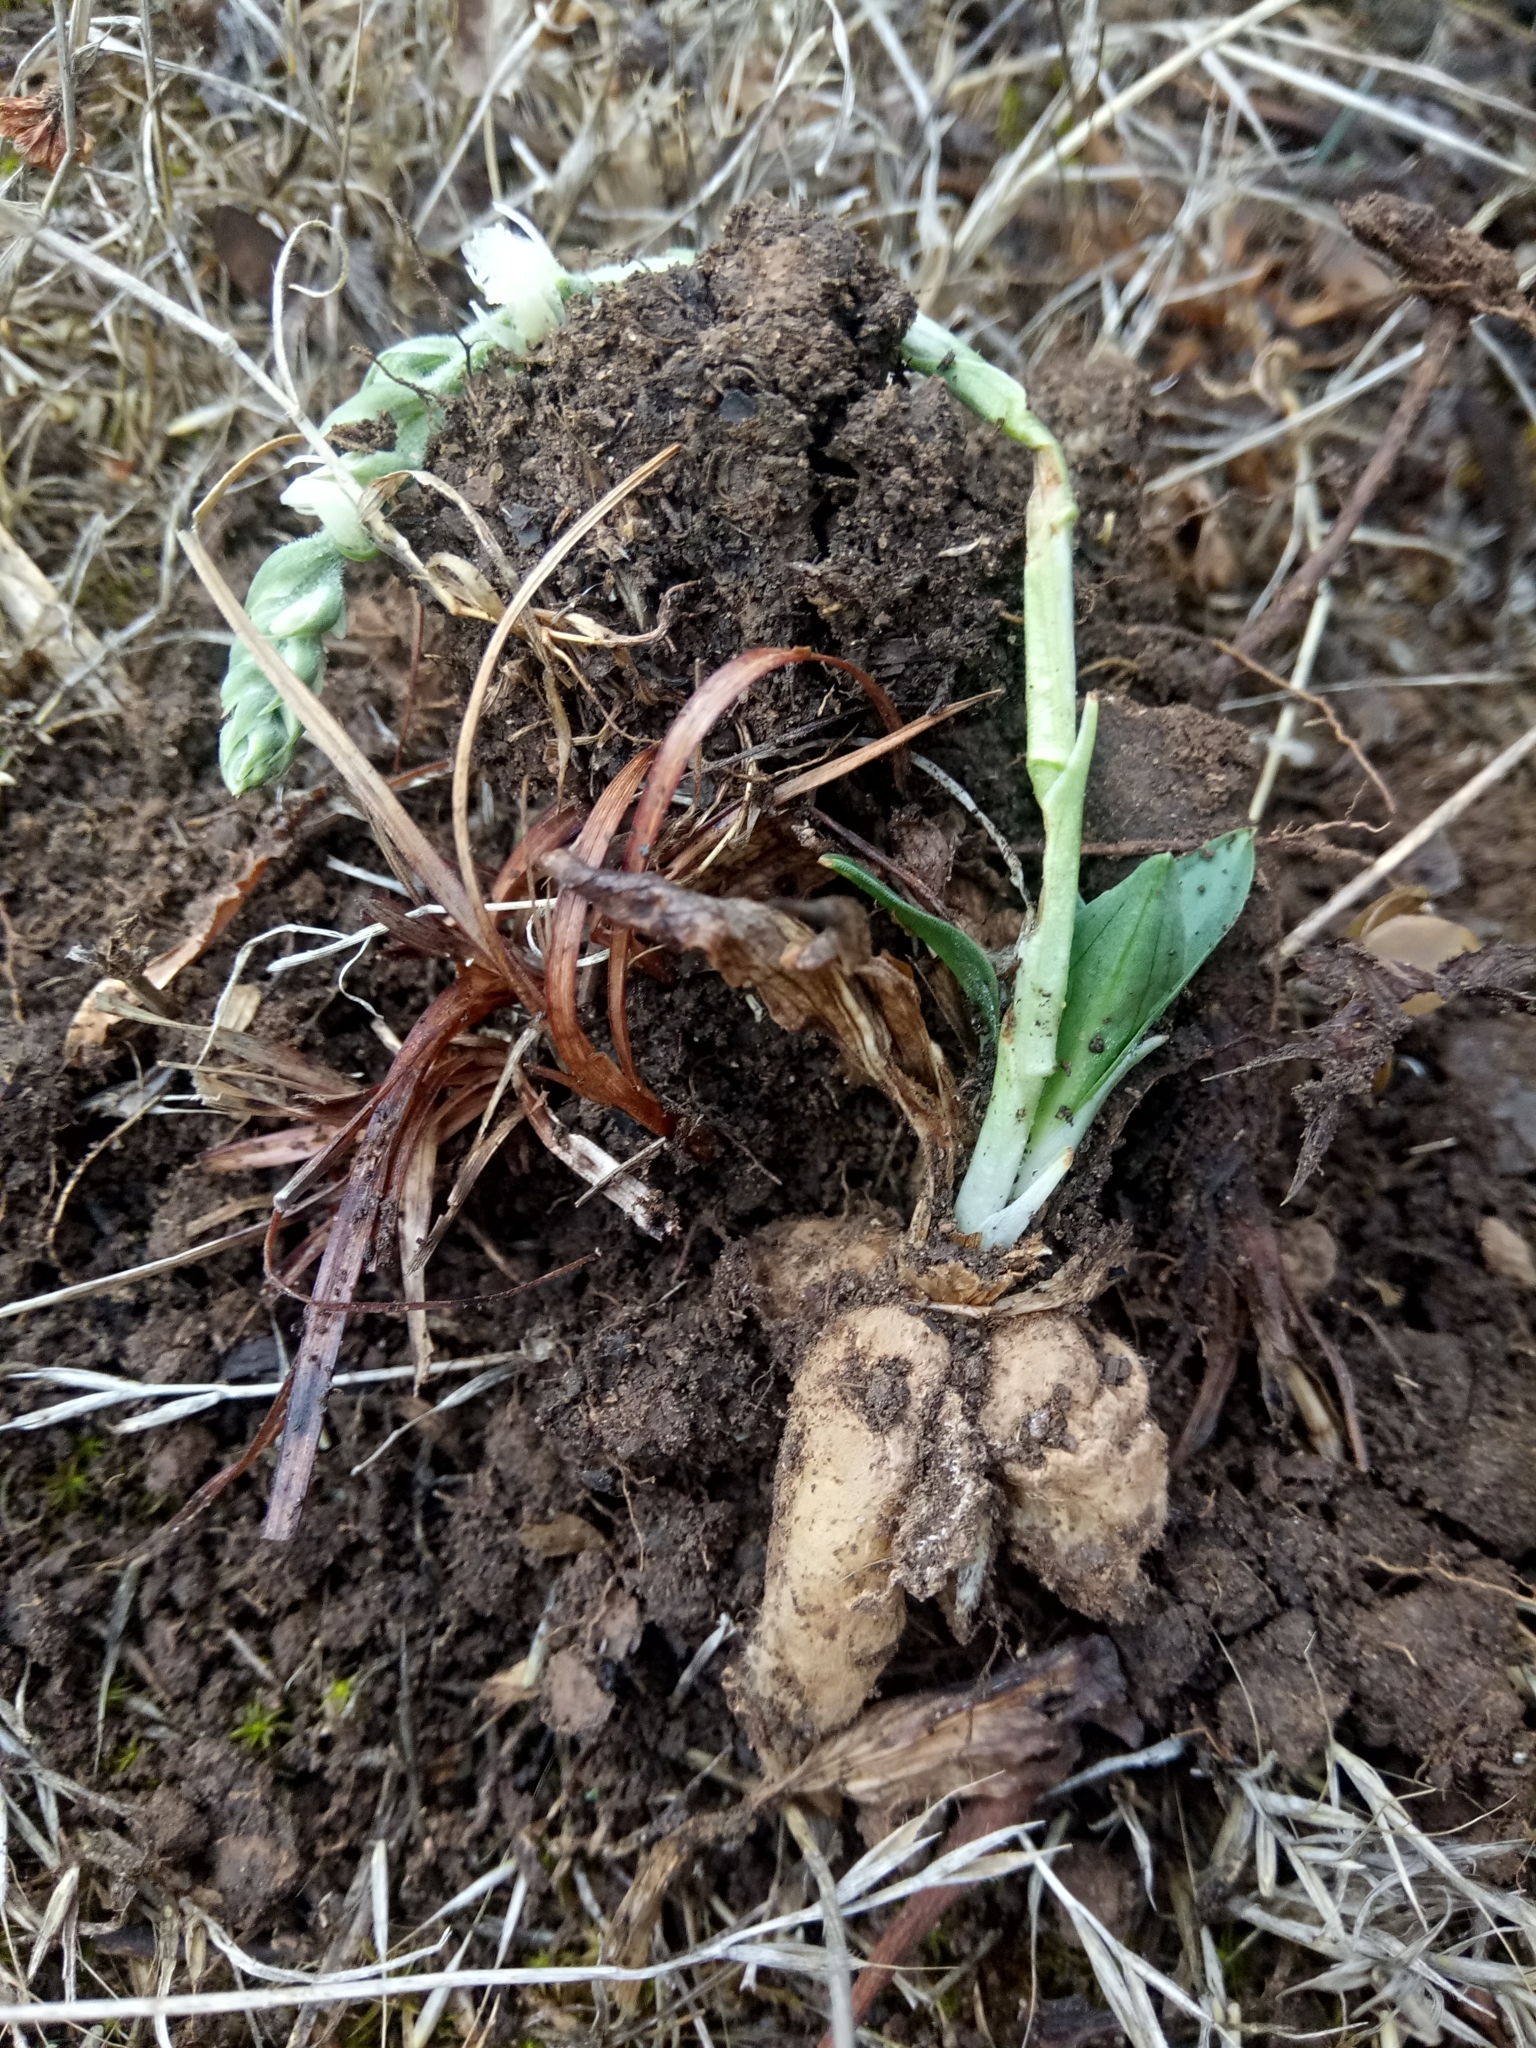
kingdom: Plantae
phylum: Tracheophyta
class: Liliopsida
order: Asparagales
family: Orchidaceae
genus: Spiranthes
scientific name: Spiranthes spiralis
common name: Autumn lady's-tresses
